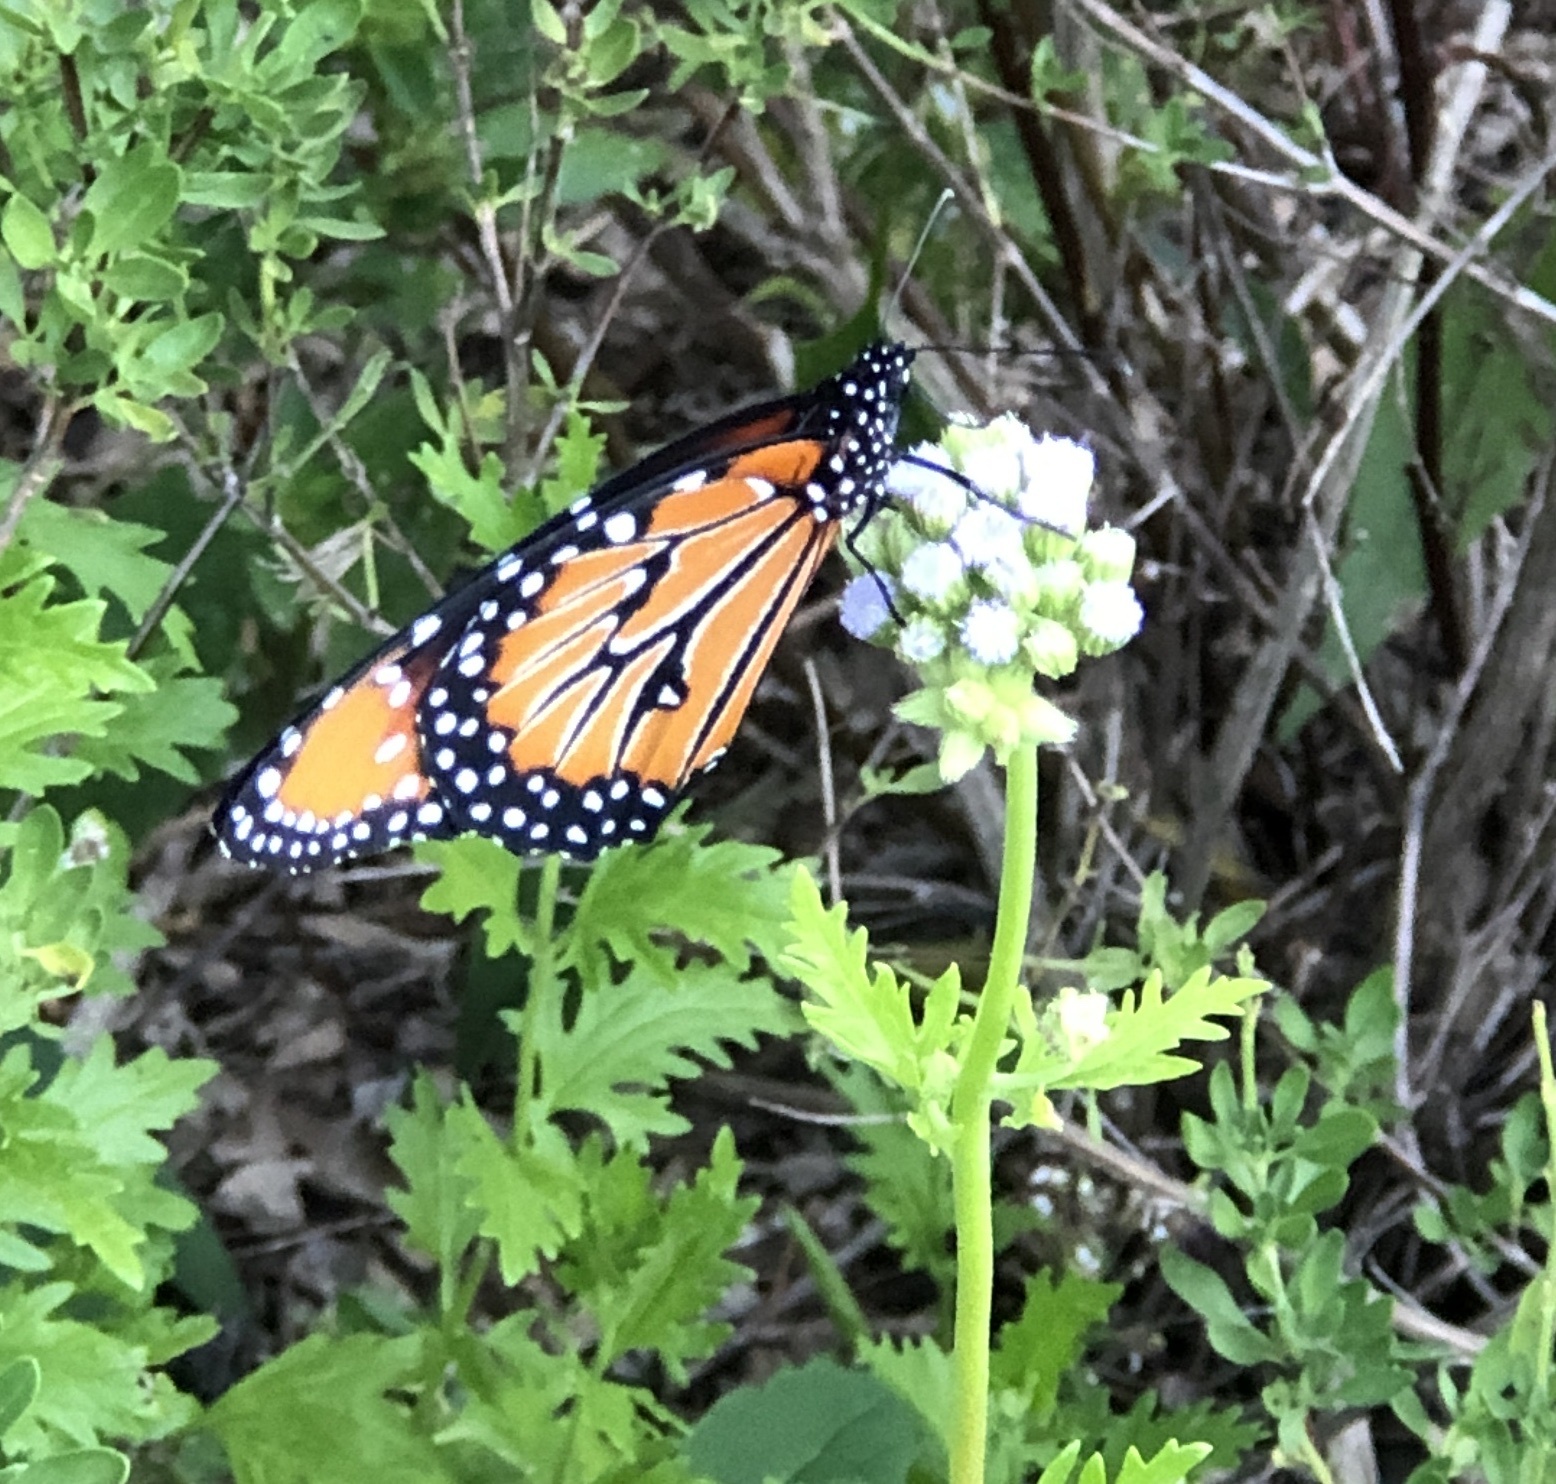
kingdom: Animalia
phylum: Arthropoda
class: Insecta
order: Lepidoptera
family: Nymphalidae
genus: Danaus
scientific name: Danaus gilippus
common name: Queen
